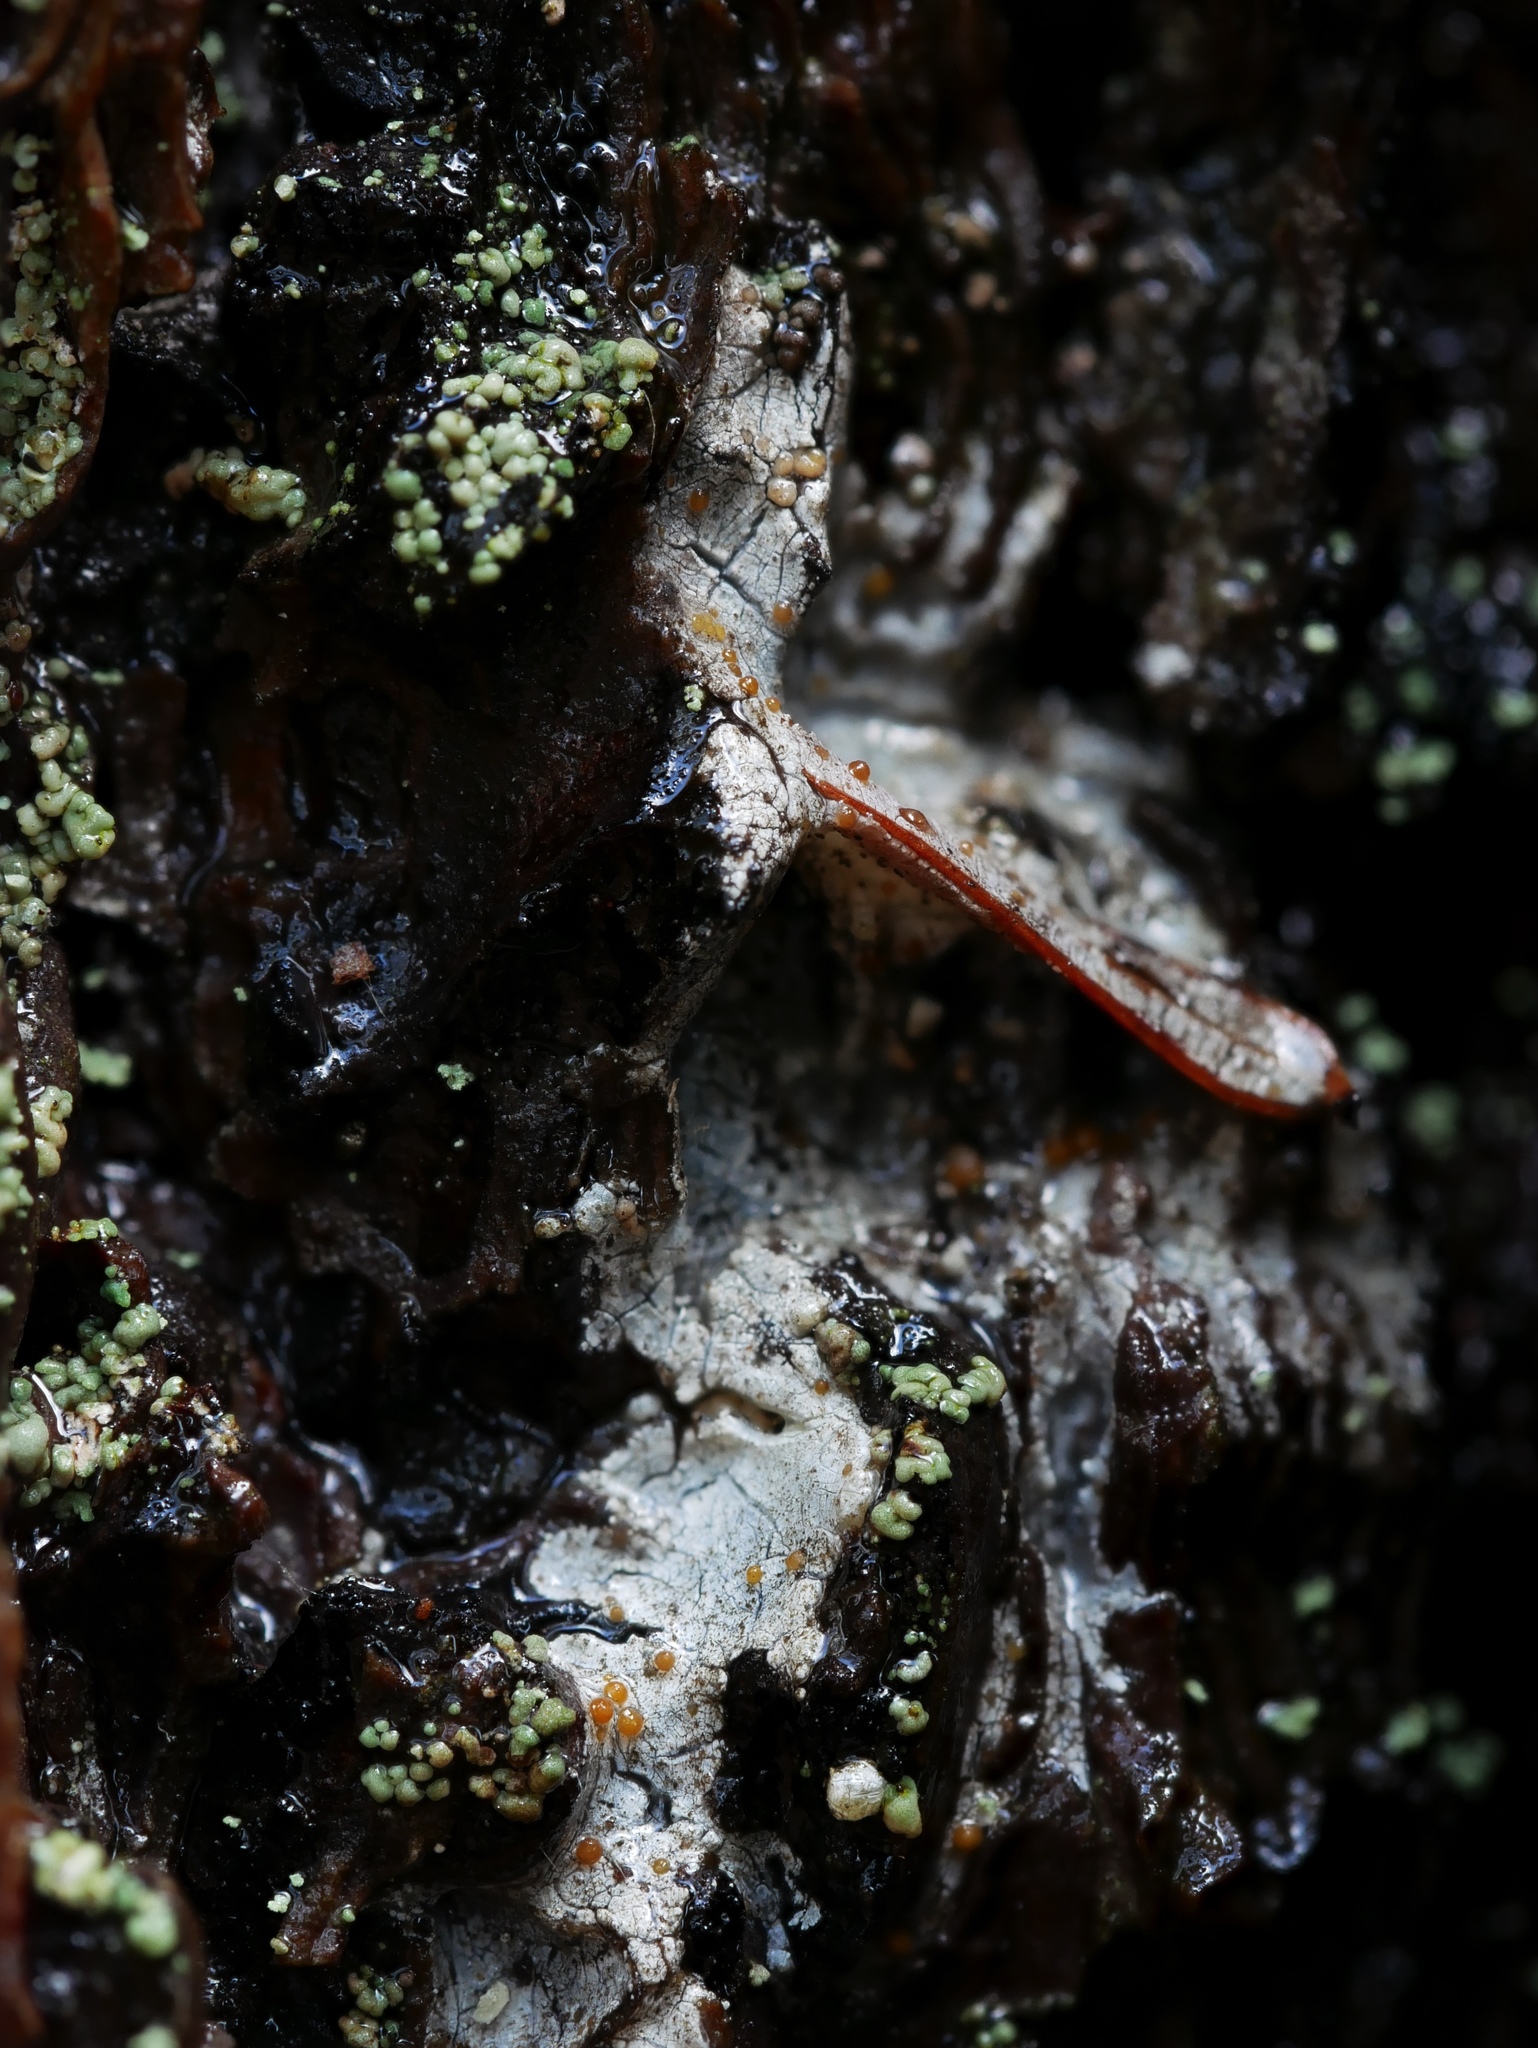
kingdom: Fungi
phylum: Ascomycota
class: Sareomycetes
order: Sareales
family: Sareaceae
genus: Sarea
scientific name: Sarea resinae
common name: Sarea lichen
